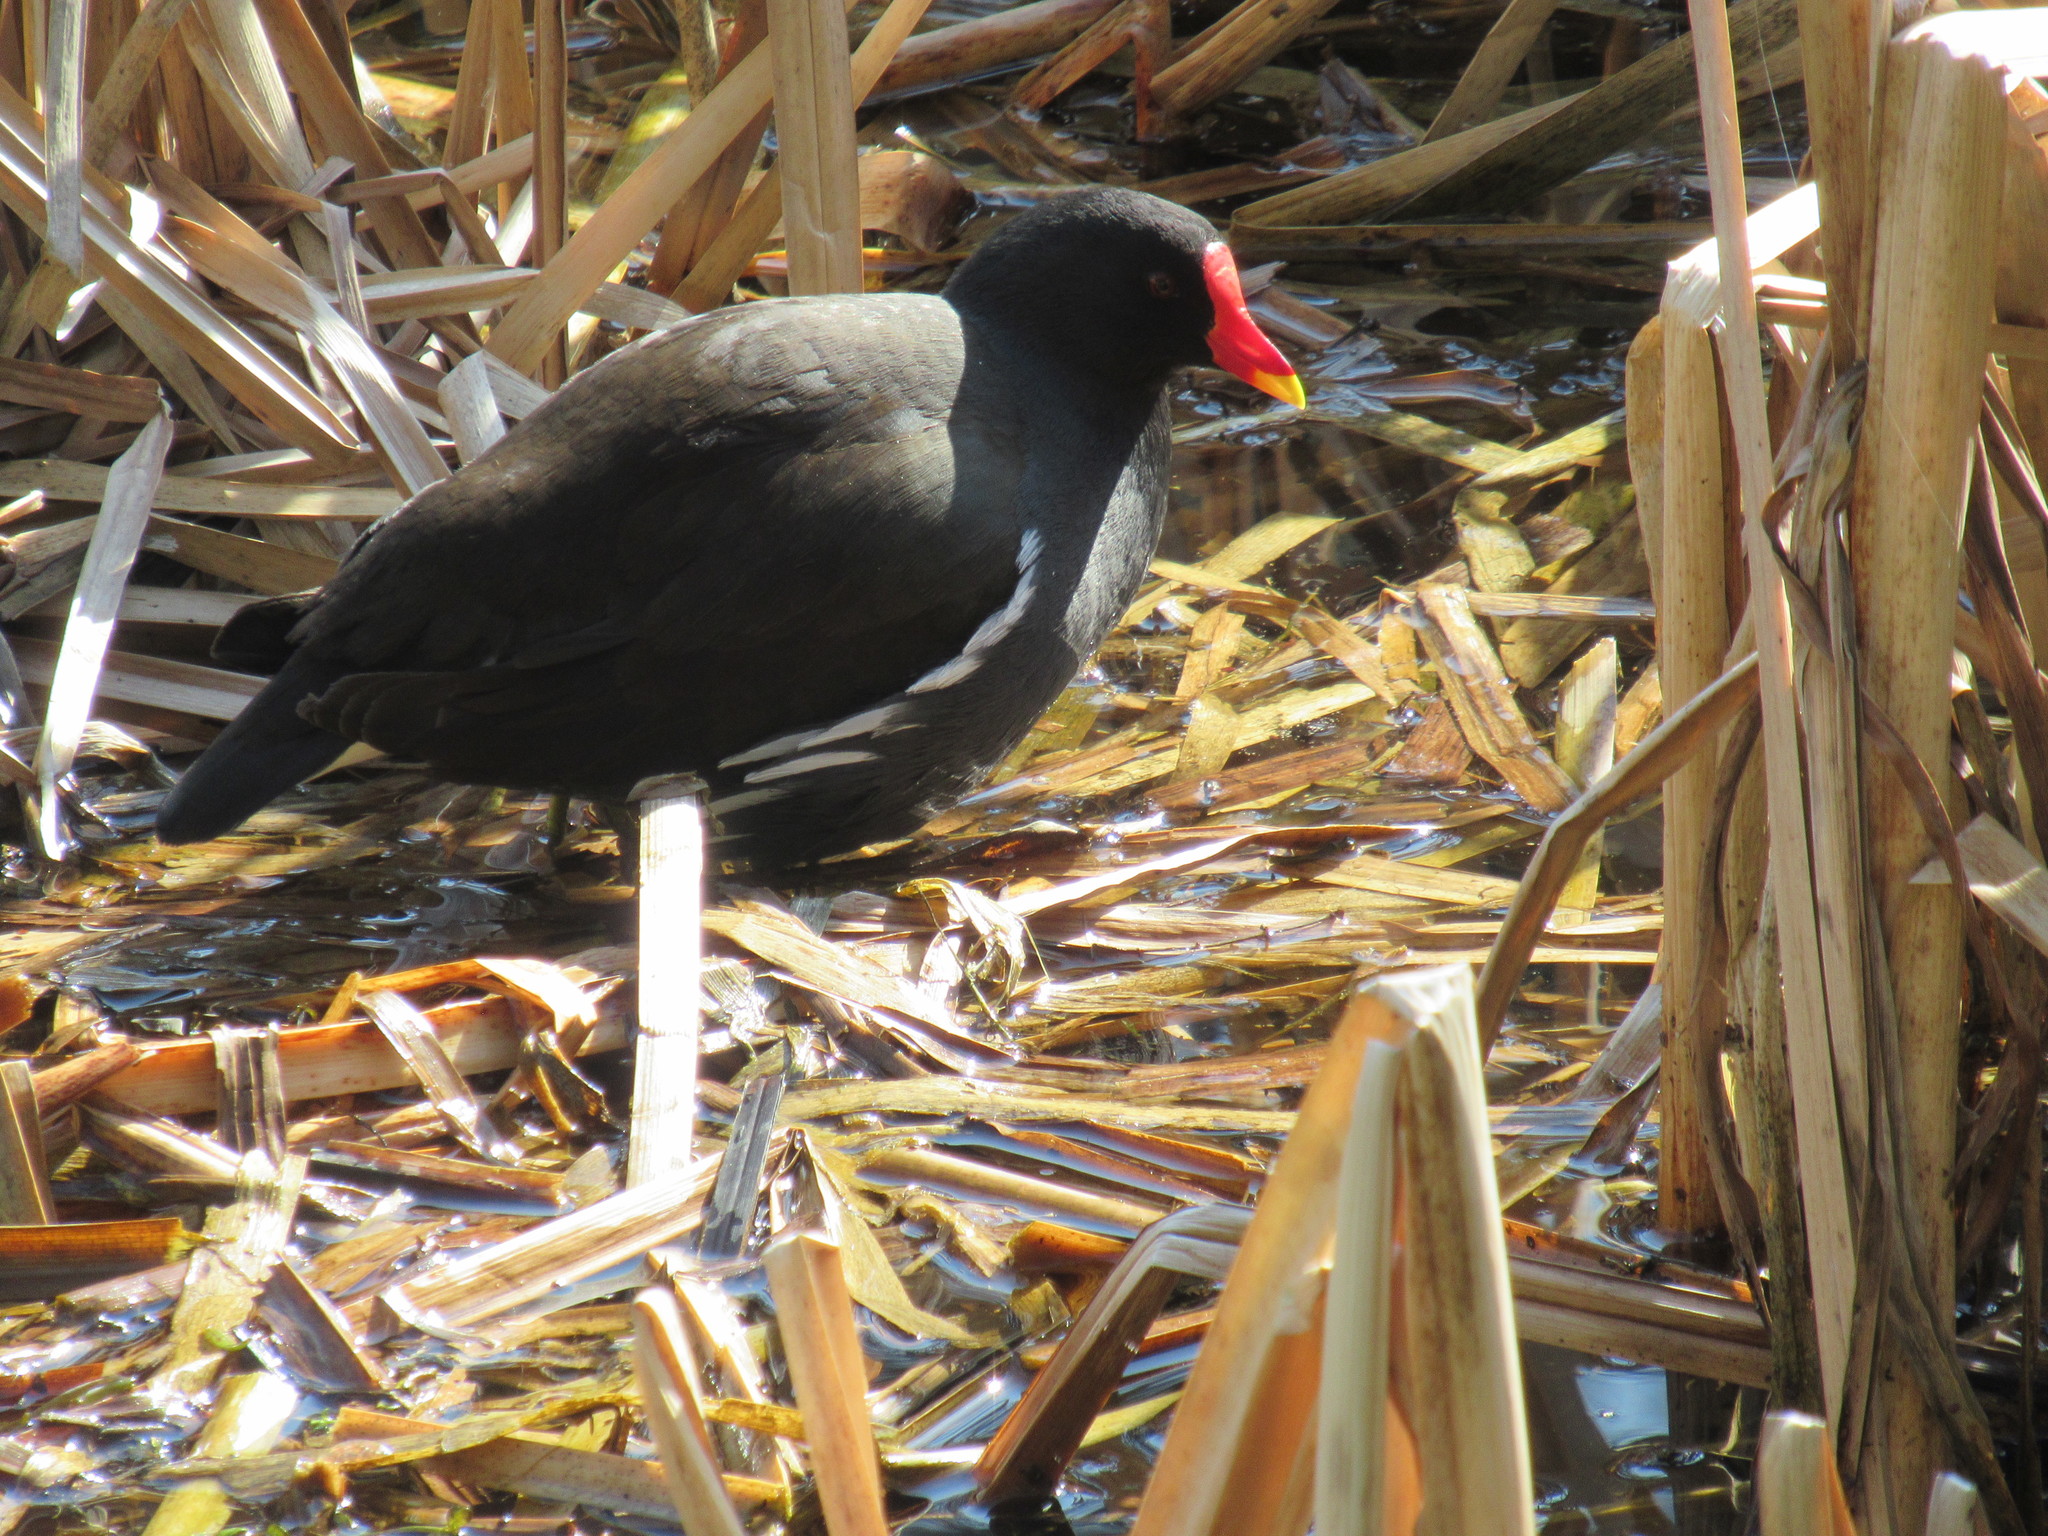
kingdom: Animalia
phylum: Chordata
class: Aves
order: Gruiformes
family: Rallidae
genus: Gallinula
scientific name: Gallinula chloropus
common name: Common moorhen
